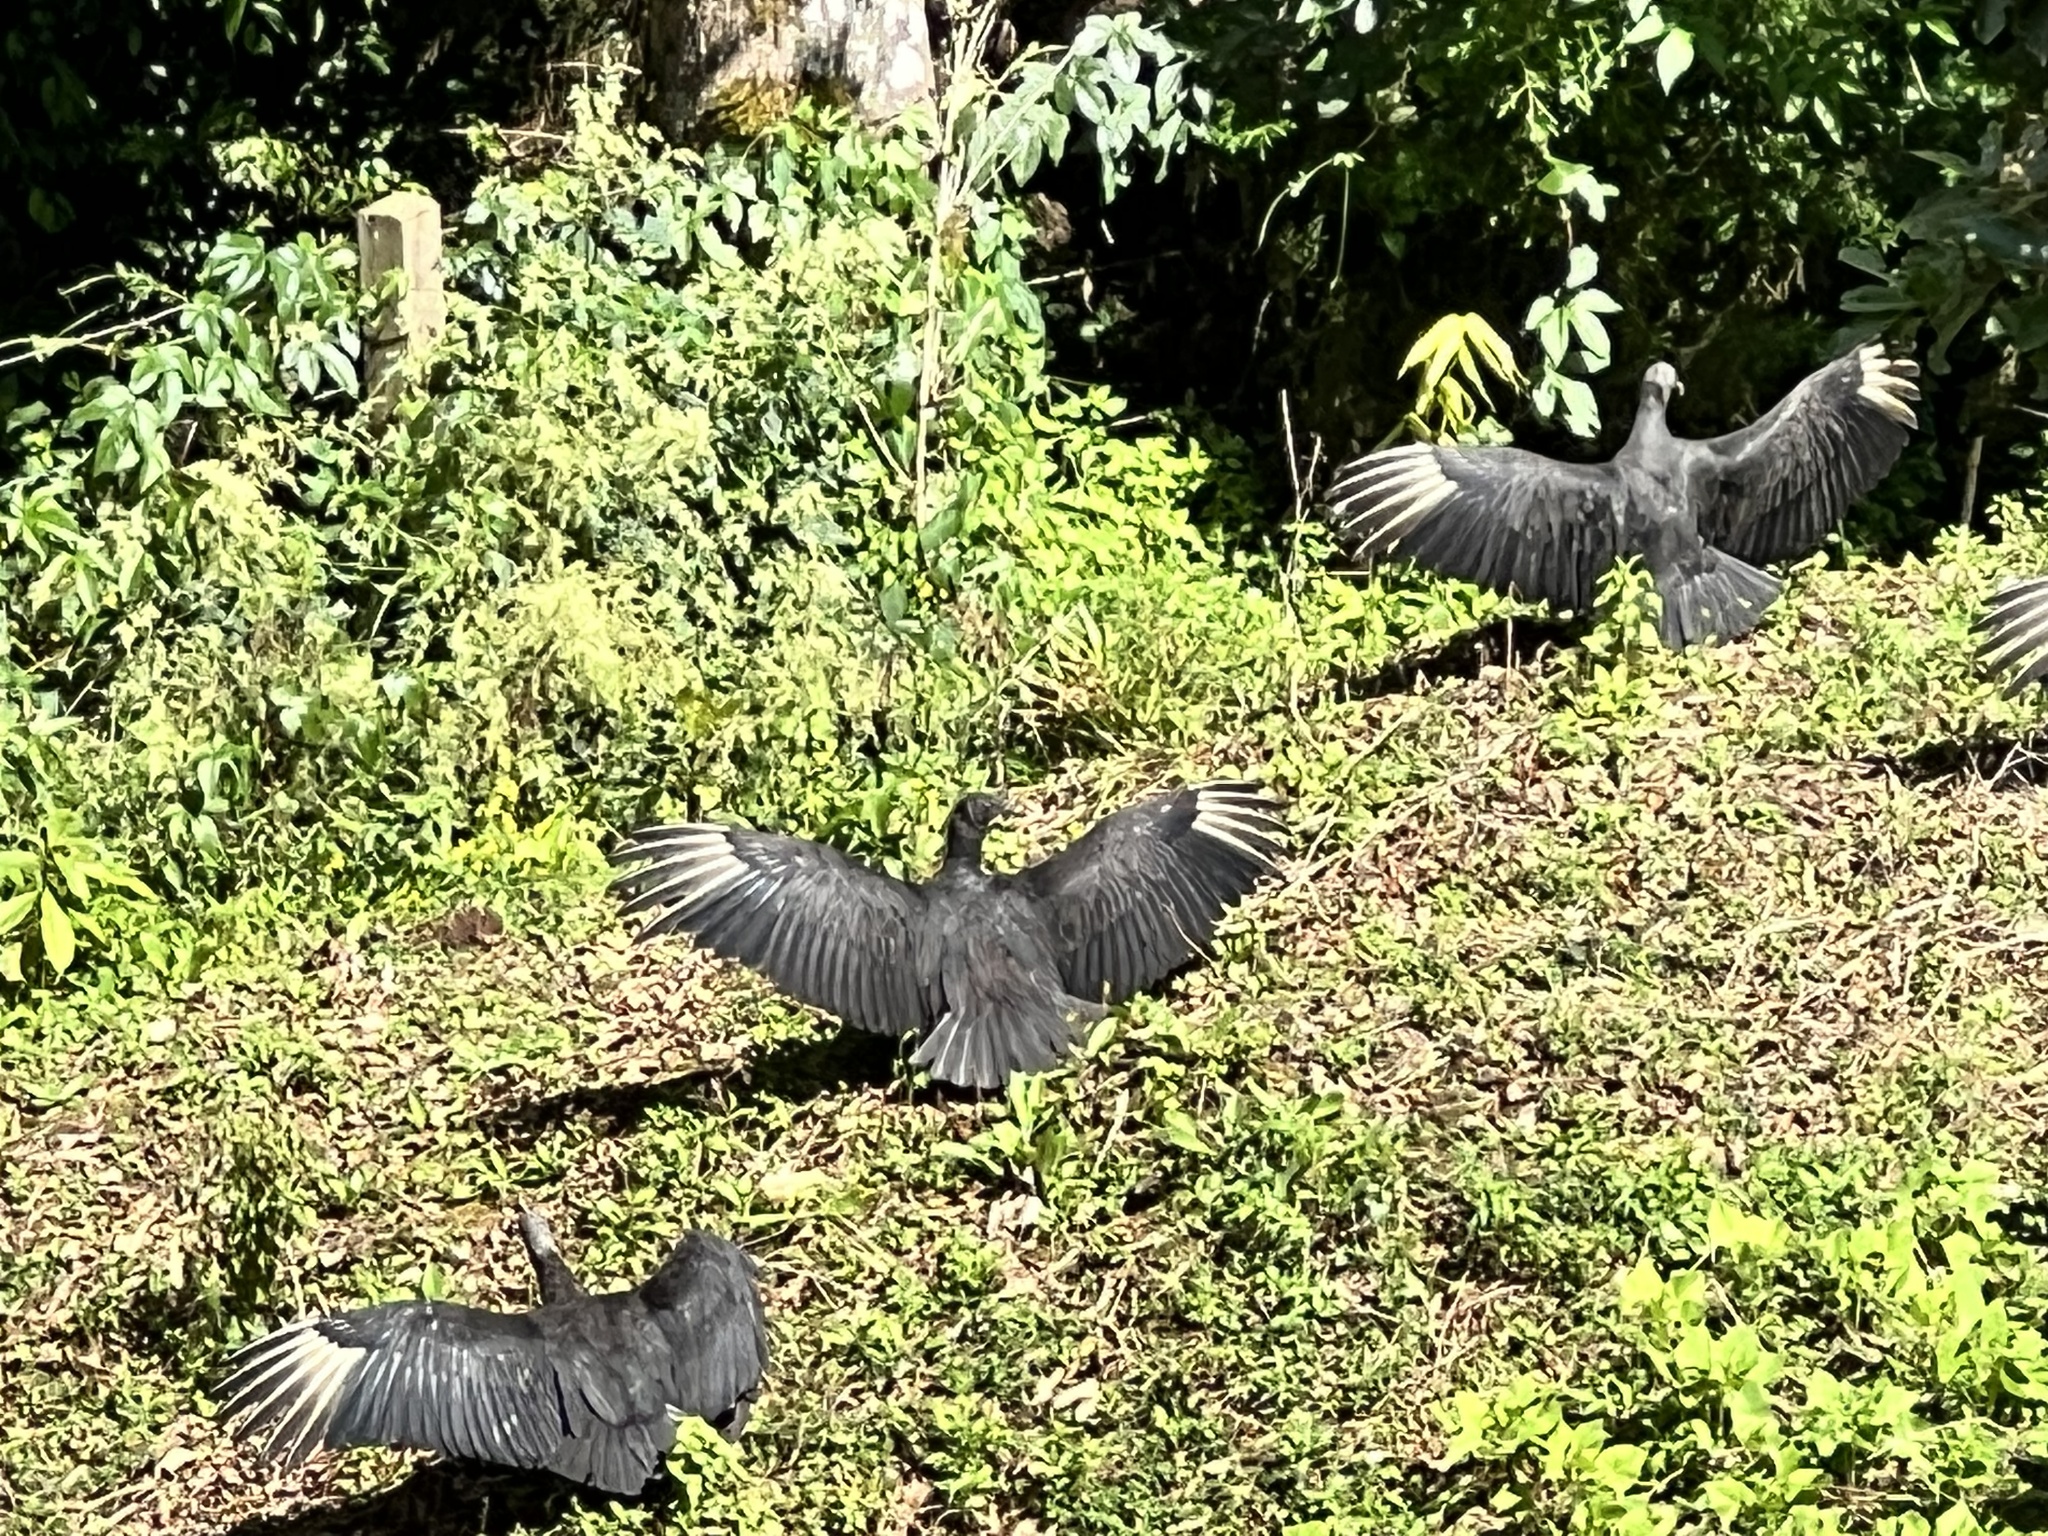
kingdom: Animalia
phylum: Chordata
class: Aves
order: Accipitriformes
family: Cathartidae
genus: Coragyps
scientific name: Coragyps atratus
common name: Black vulture
